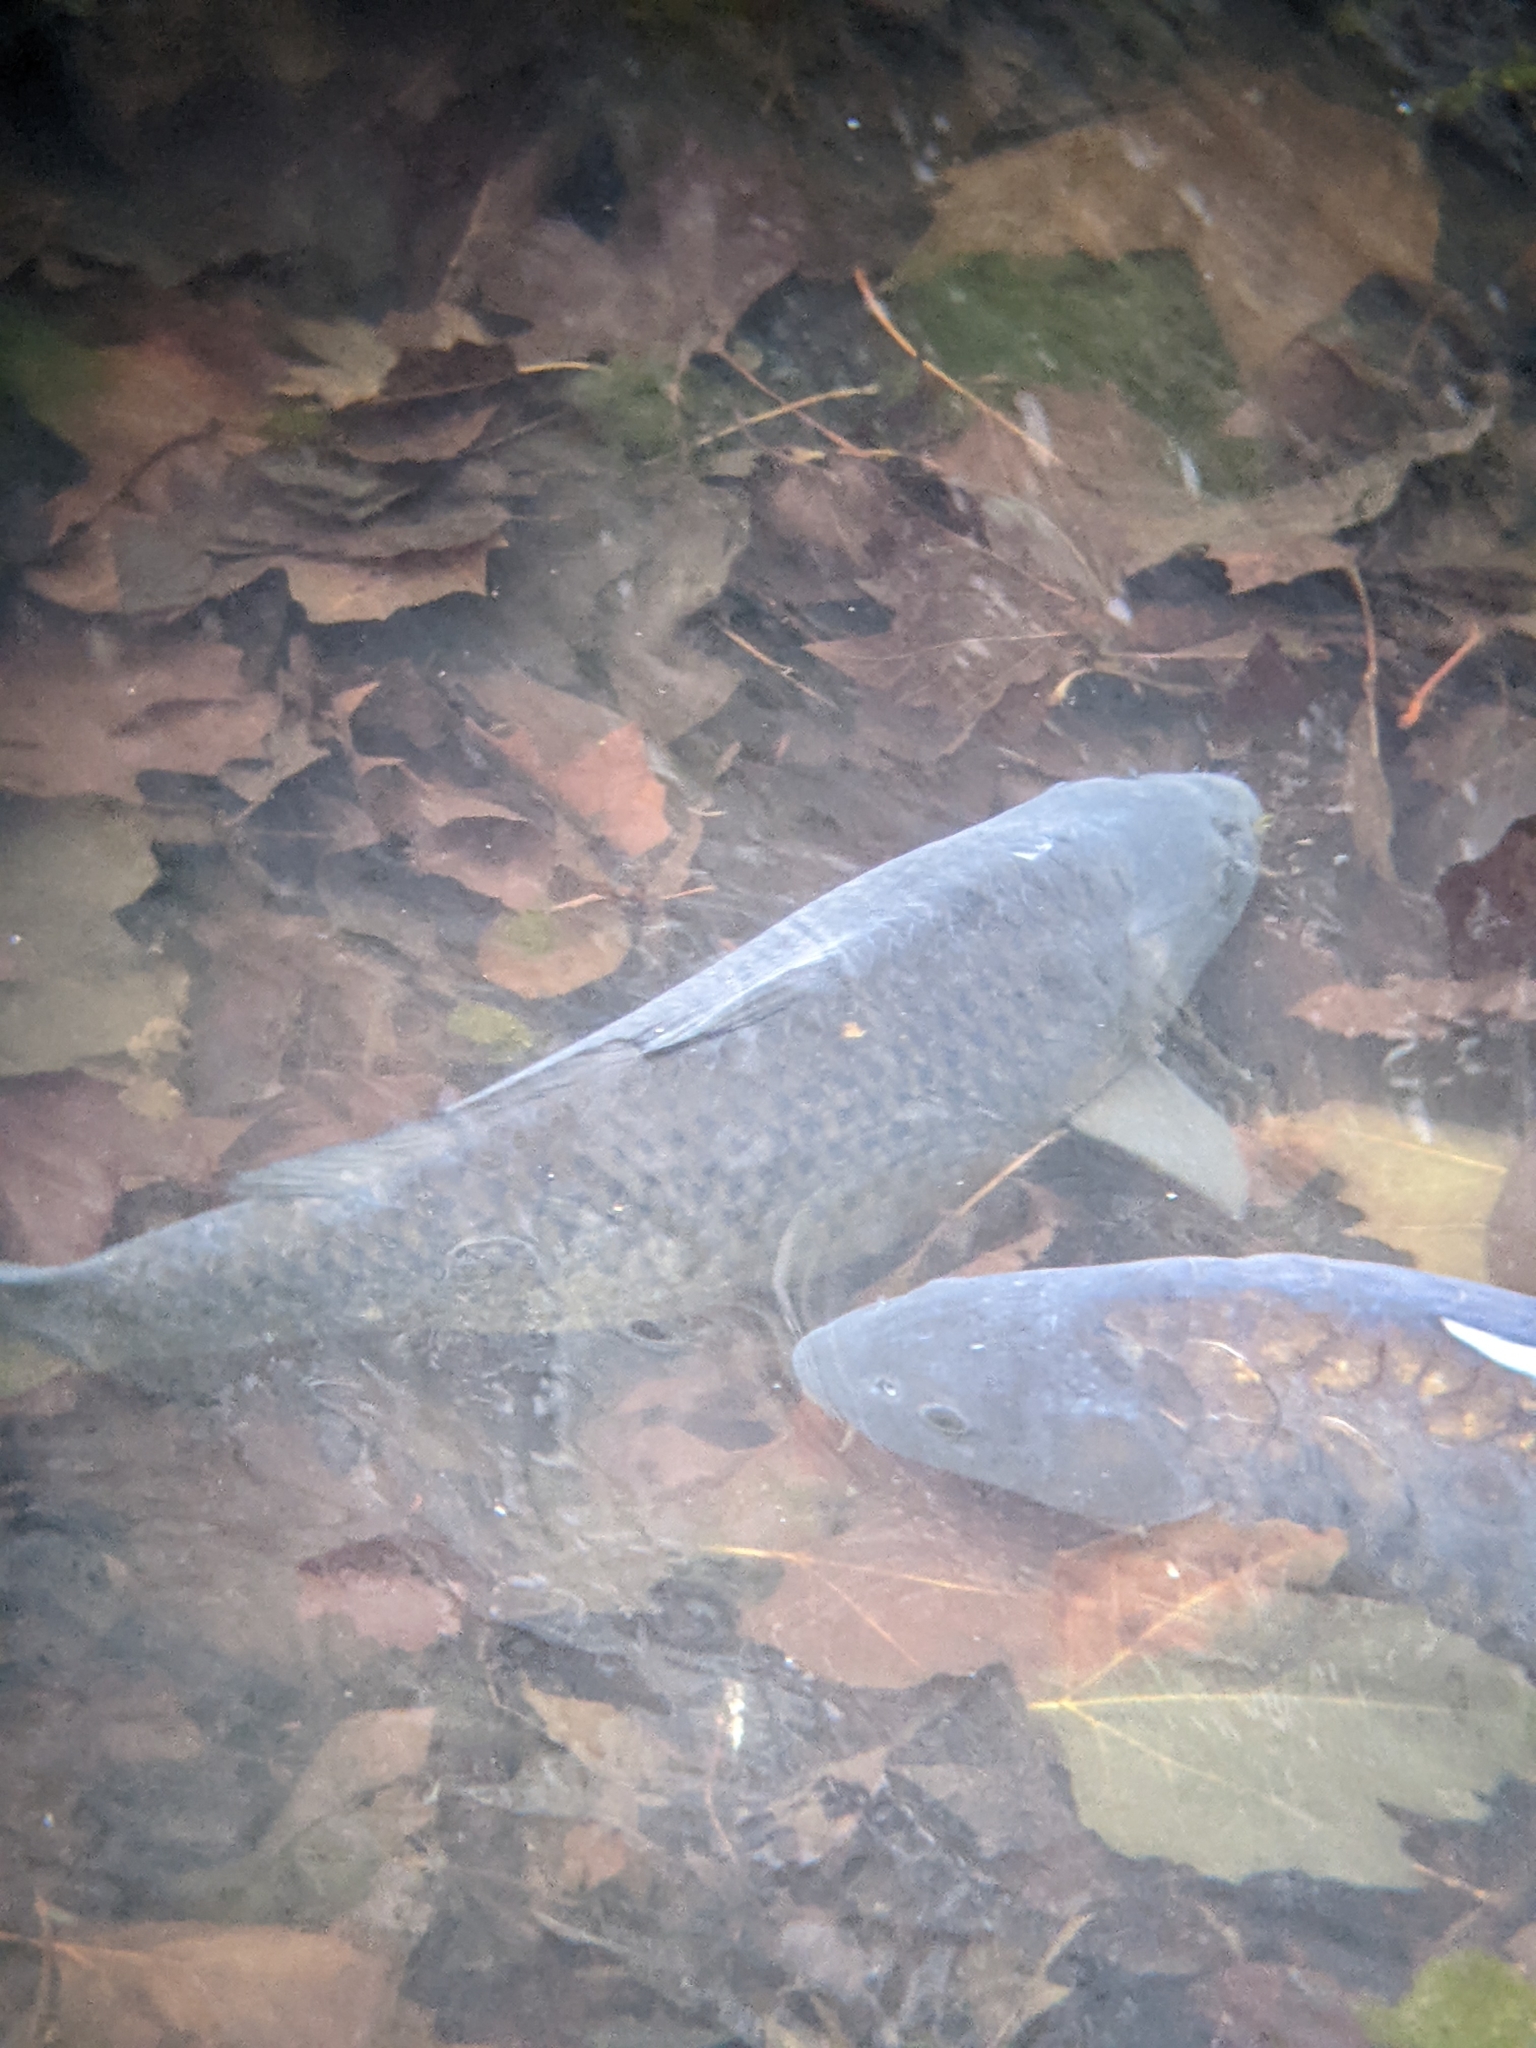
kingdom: Animalia
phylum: Chordata
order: Cypriniformes
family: Cyprinidae
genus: Cyprinus
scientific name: Cyprinus carpio
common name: Common carp
